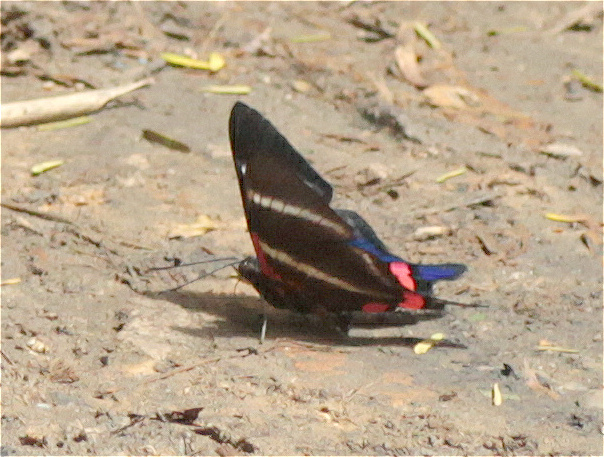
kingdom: Animalia
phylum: Arthropoda
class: Insecta
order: Lepidoptera
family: Riodinidae
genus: Rhetus
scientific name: Rhetus periander
